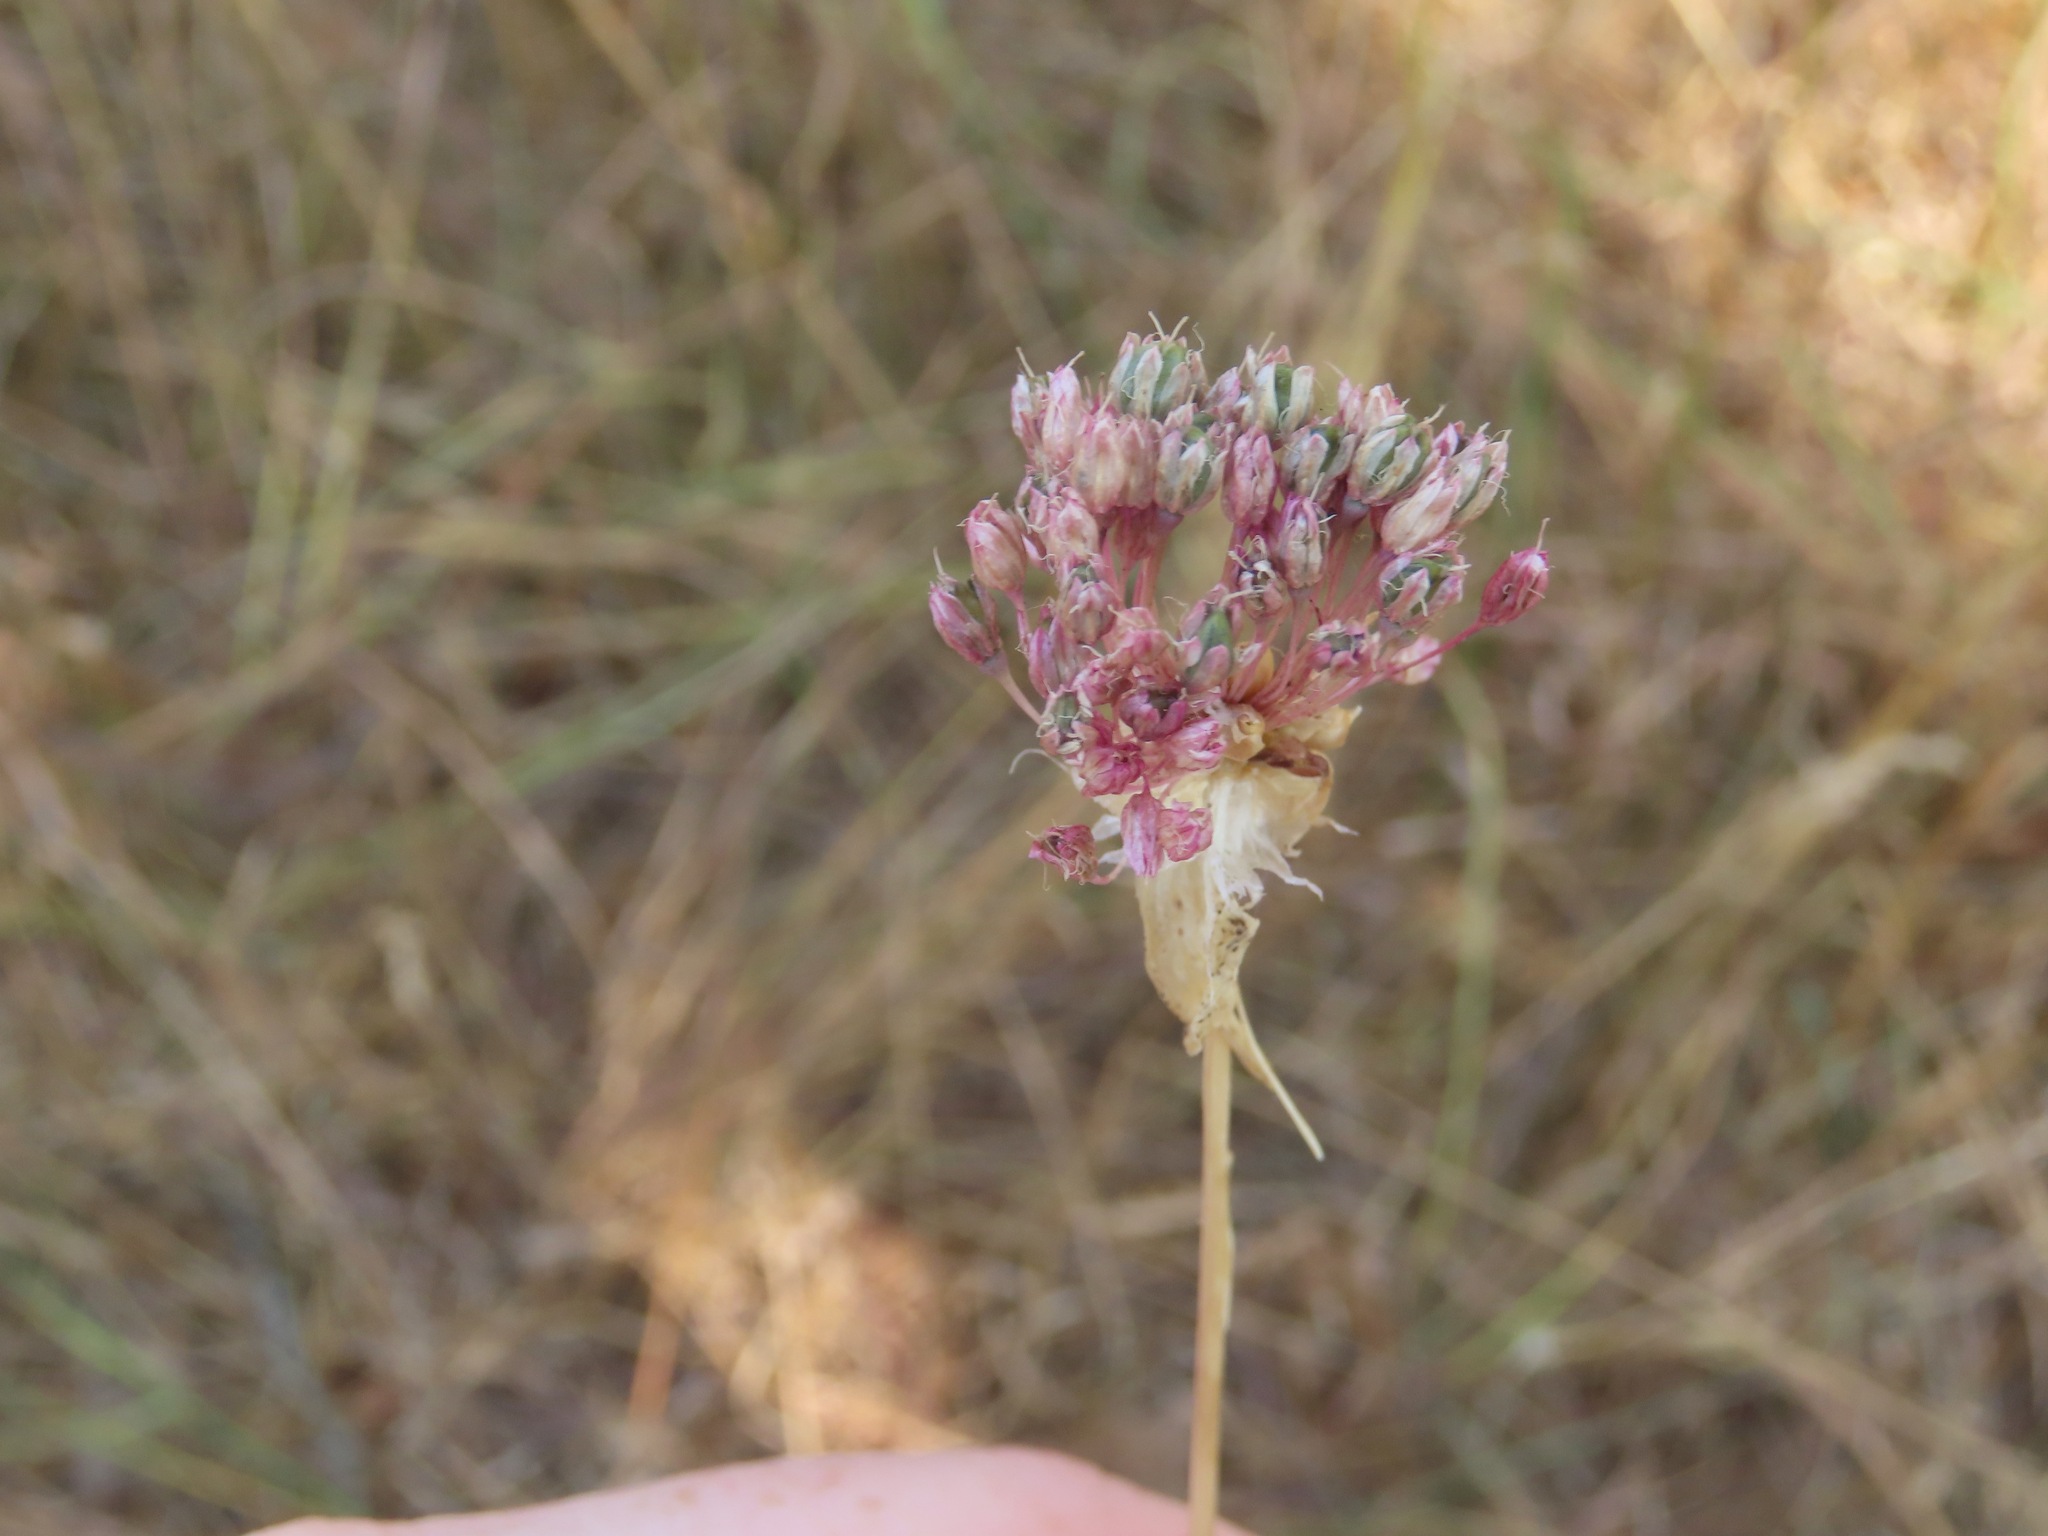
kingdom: Plantae
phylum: Tracheophyta
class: Liliopsida
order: Asparagales
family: Amaryllidaceae
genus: Allium
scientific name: Allium vineale
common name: Crow garlic
